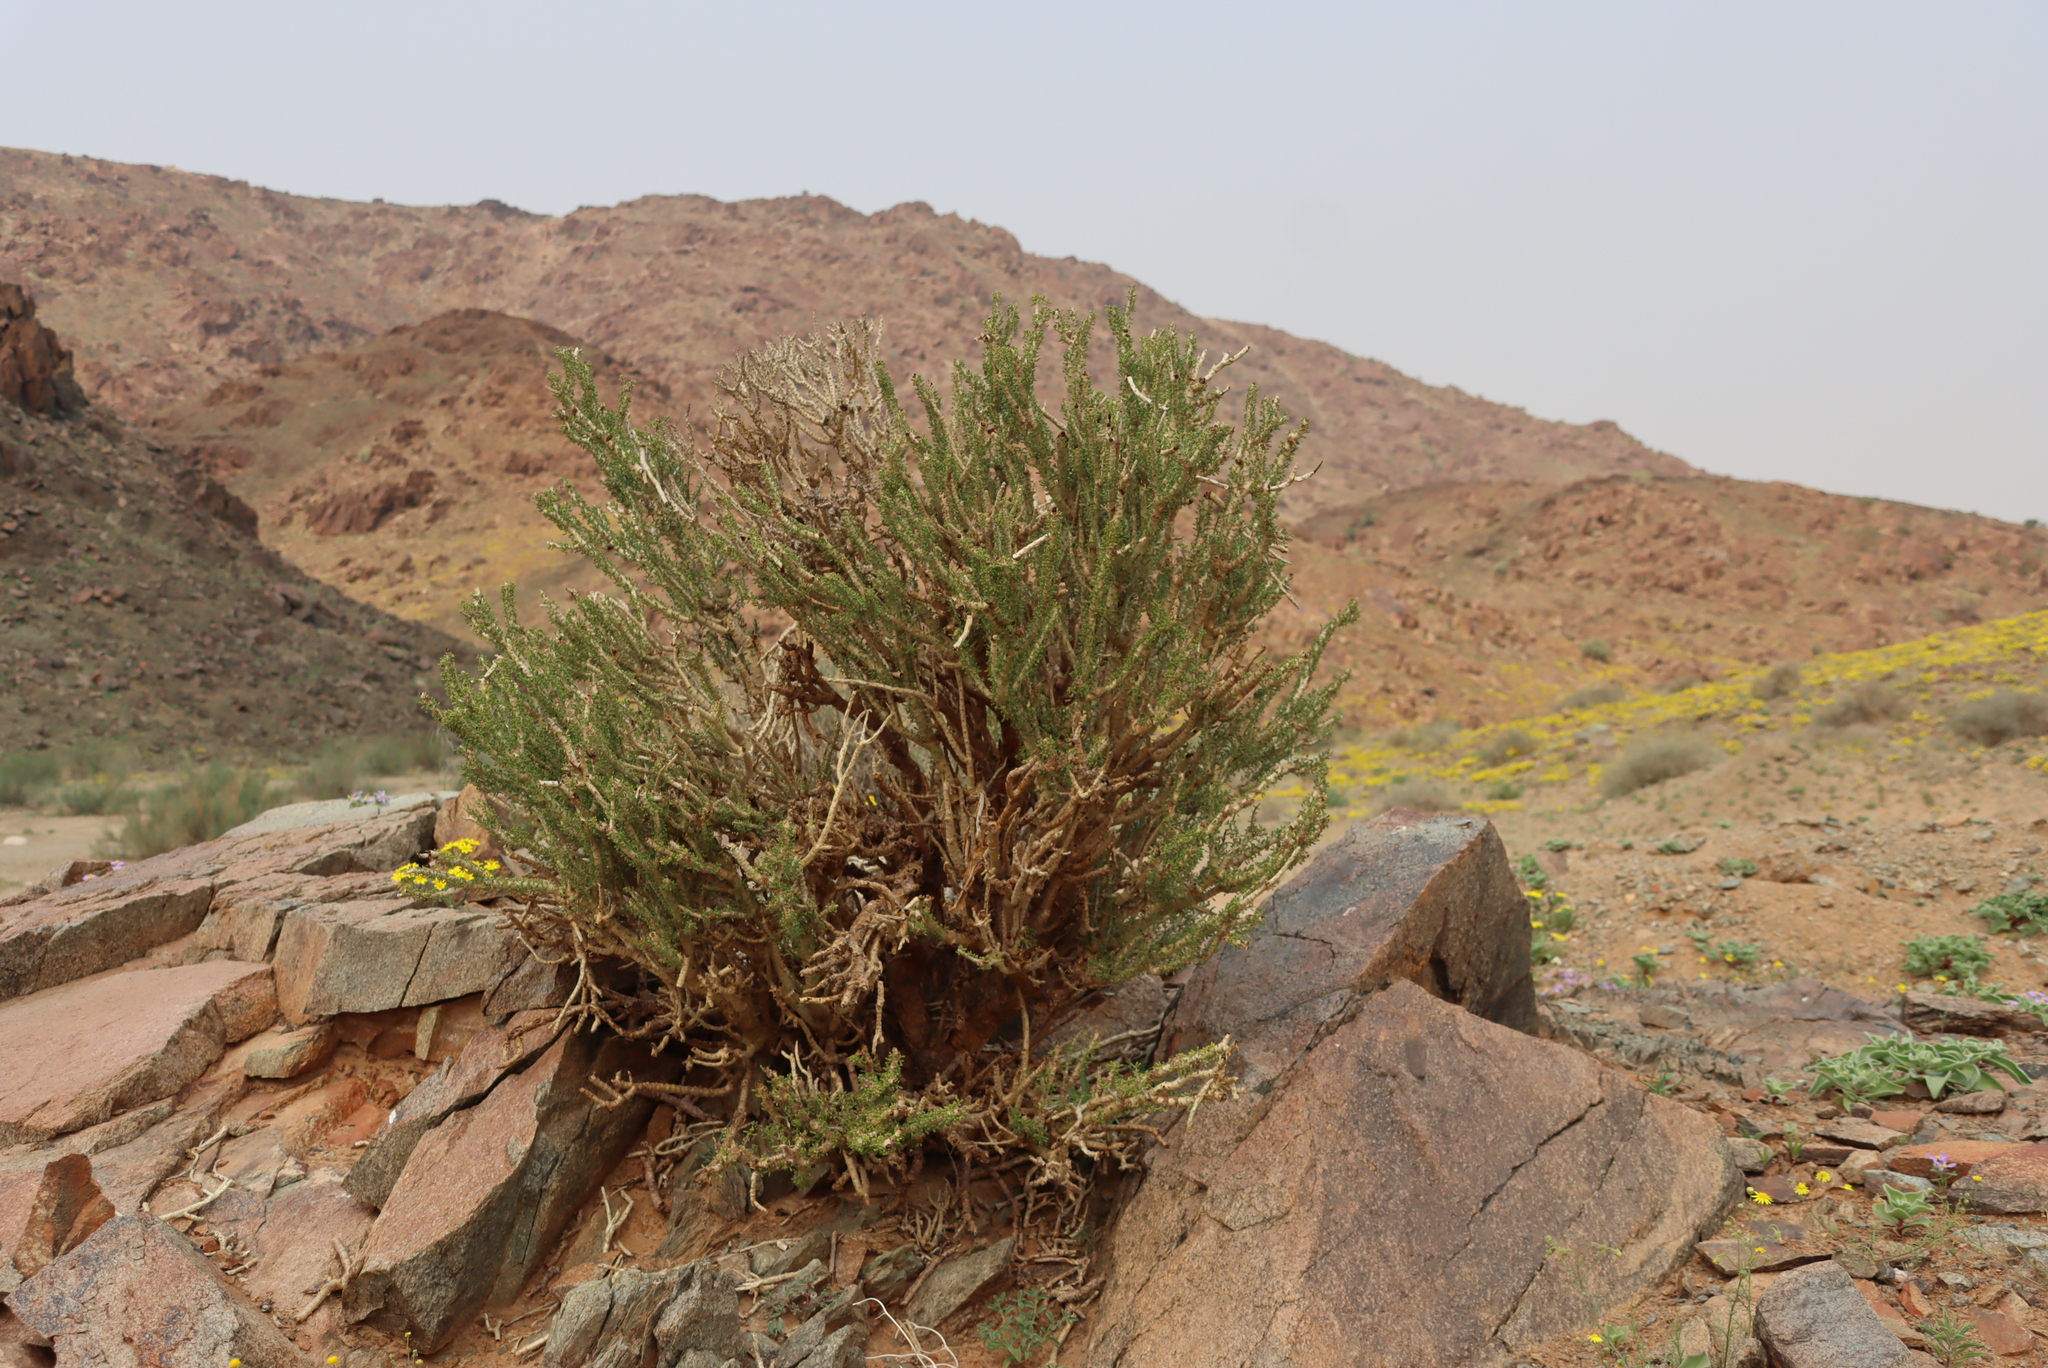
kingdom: Plantae
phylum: Tracheophyta
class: Magnoliopsida
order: Caryophyllales
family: Didiereaceae
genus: Portulacaria
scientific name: Portulacaria namaquensis
